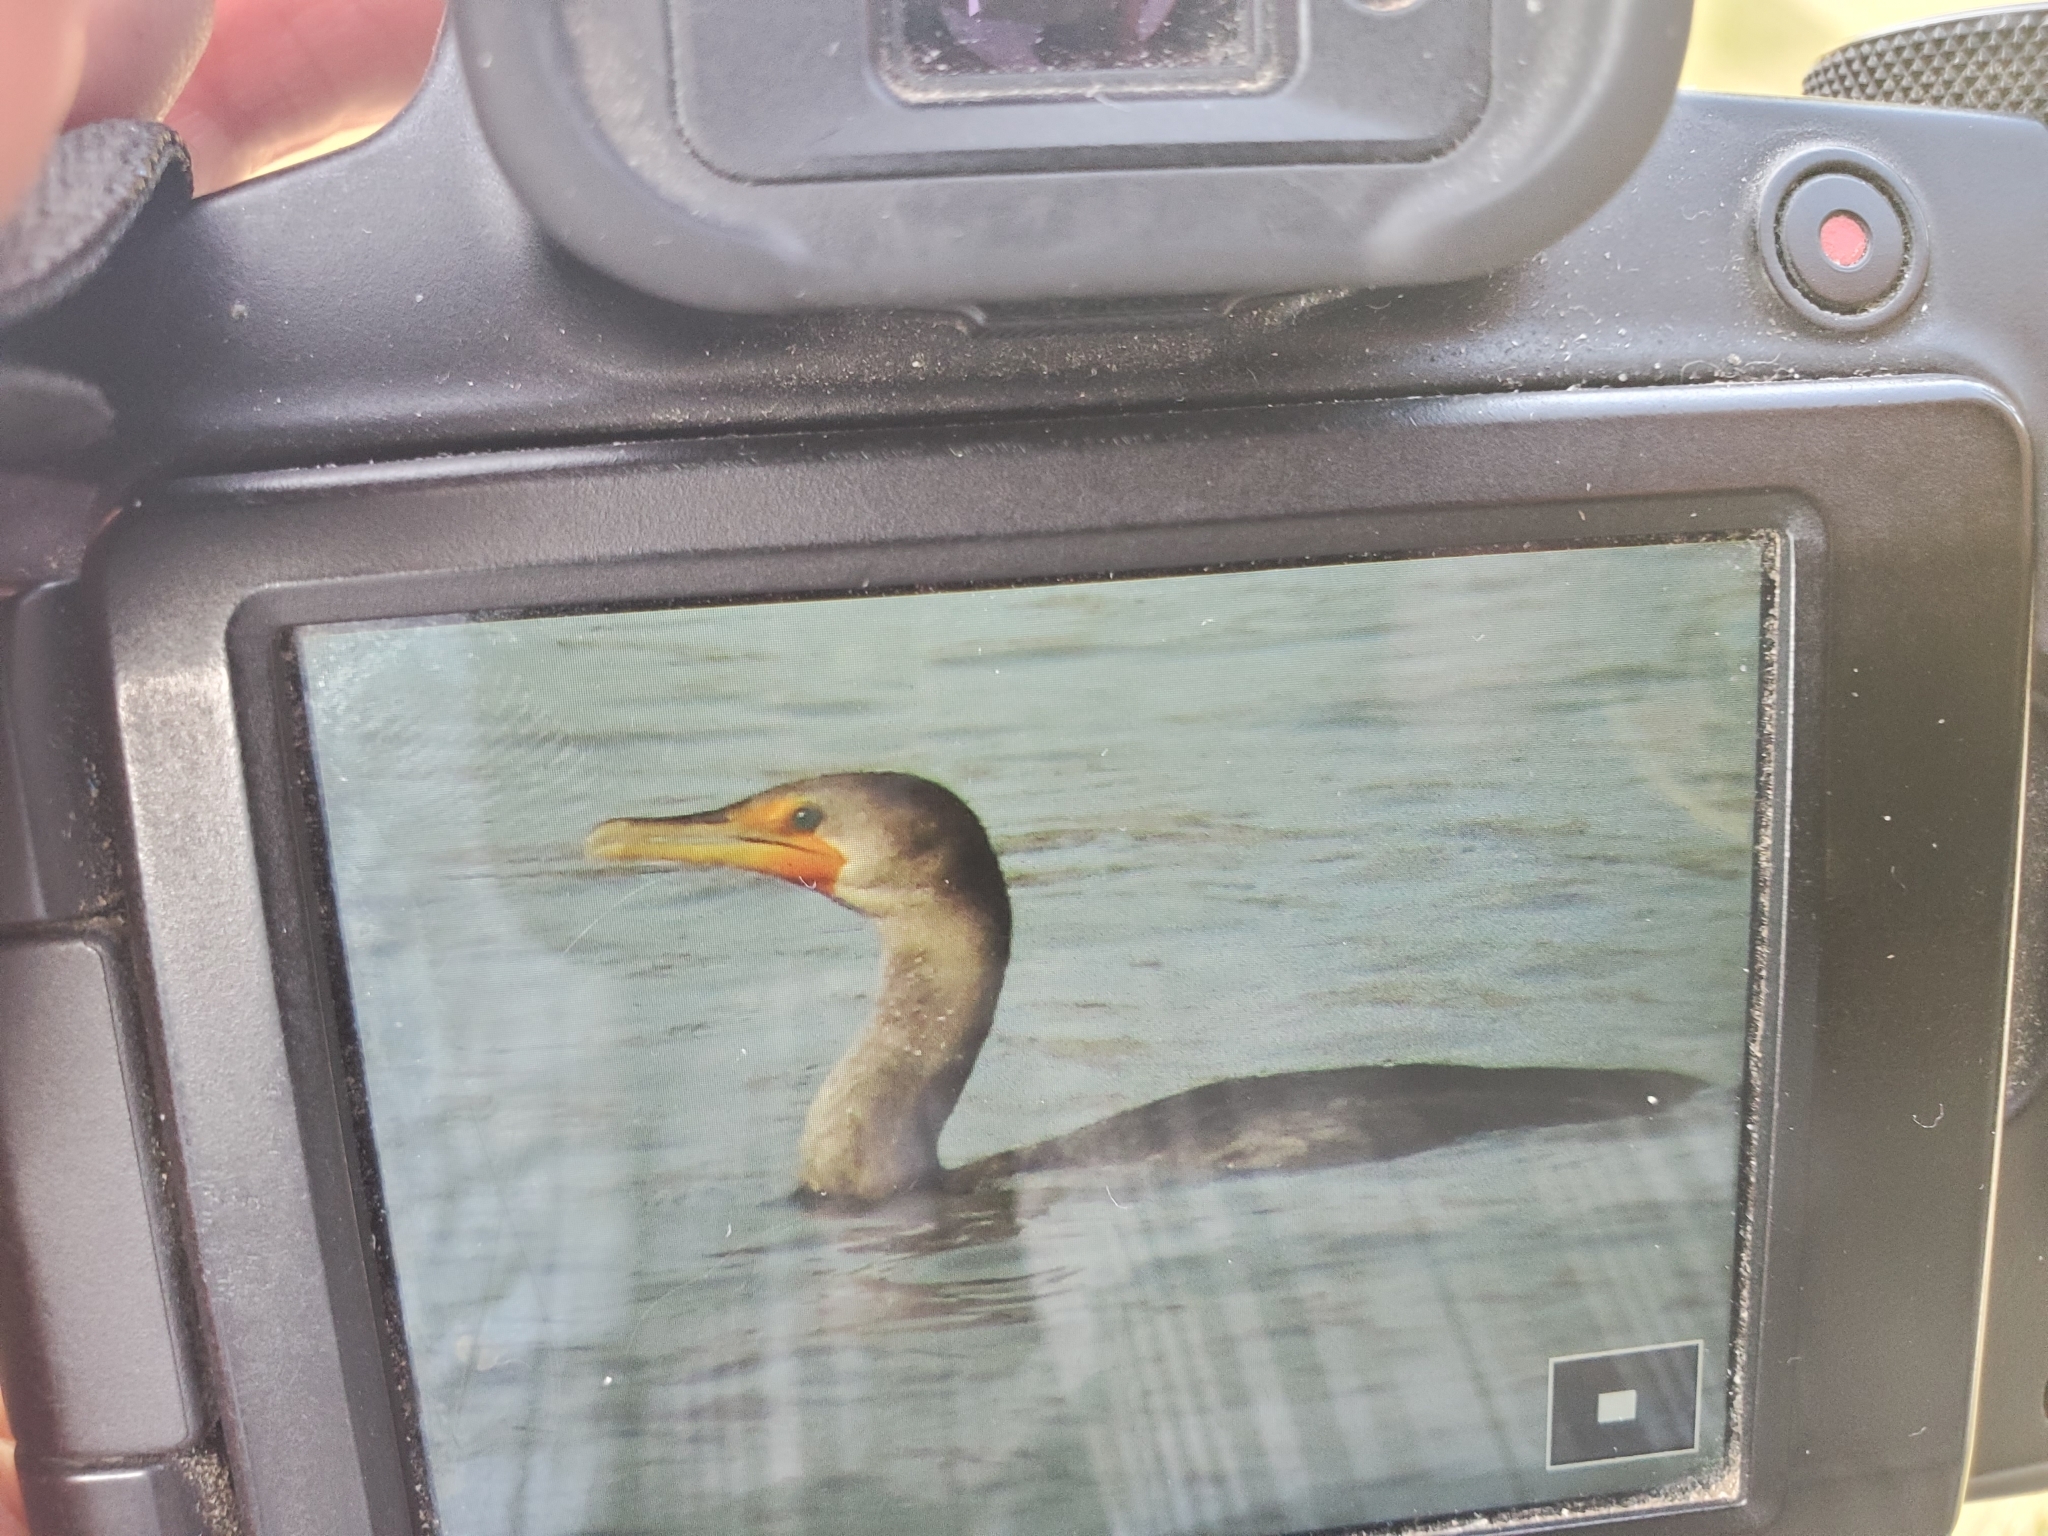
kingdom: Animalia
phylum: Chordata
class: Aves
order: Suliformes
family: Phalacrocoracidae
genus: Phalacrocorax
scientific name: Phalacrocorax auritus
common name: Double-crested cormorant
